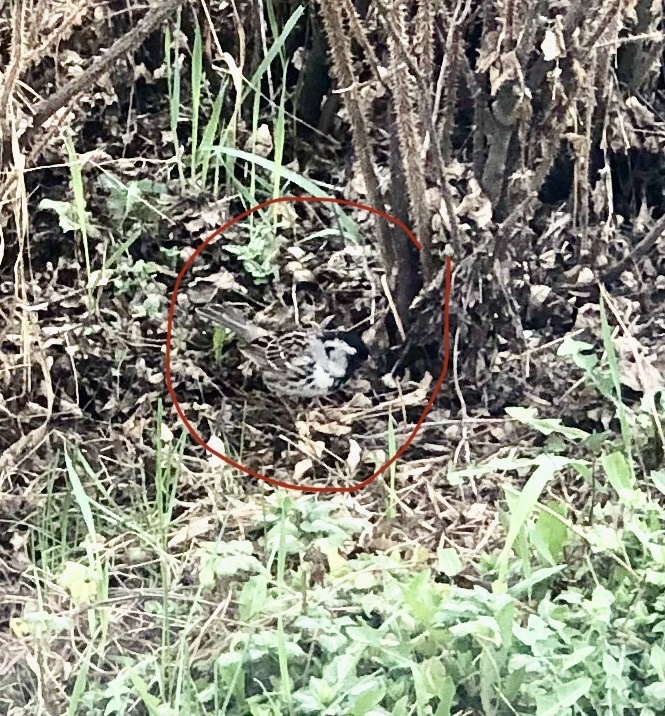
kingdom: Animalia
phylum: Chordata
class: Aves
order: Passeriformes
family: Passerellidae
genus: Zonotrichia
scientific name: Zonotrichia querula
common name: Harris's sparrow
